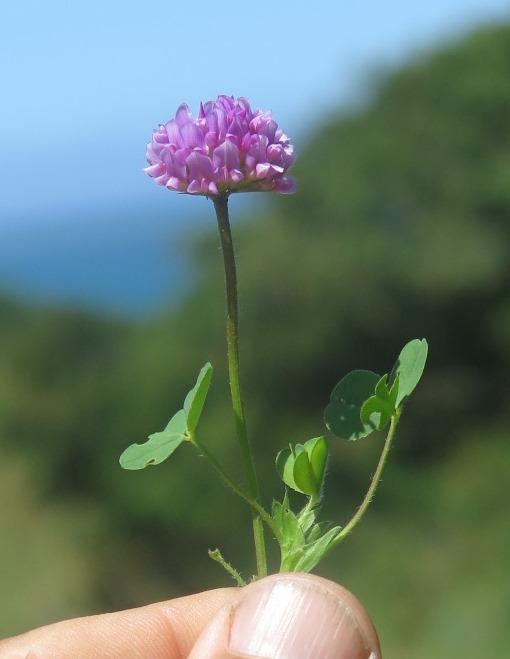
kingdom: Plantae
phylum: Tracheophyta
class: Magnoliopsida
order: Fabales
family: Fabaceae
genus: Trifolium
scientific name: Trifolium burchellianum
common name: Burchell's clover
